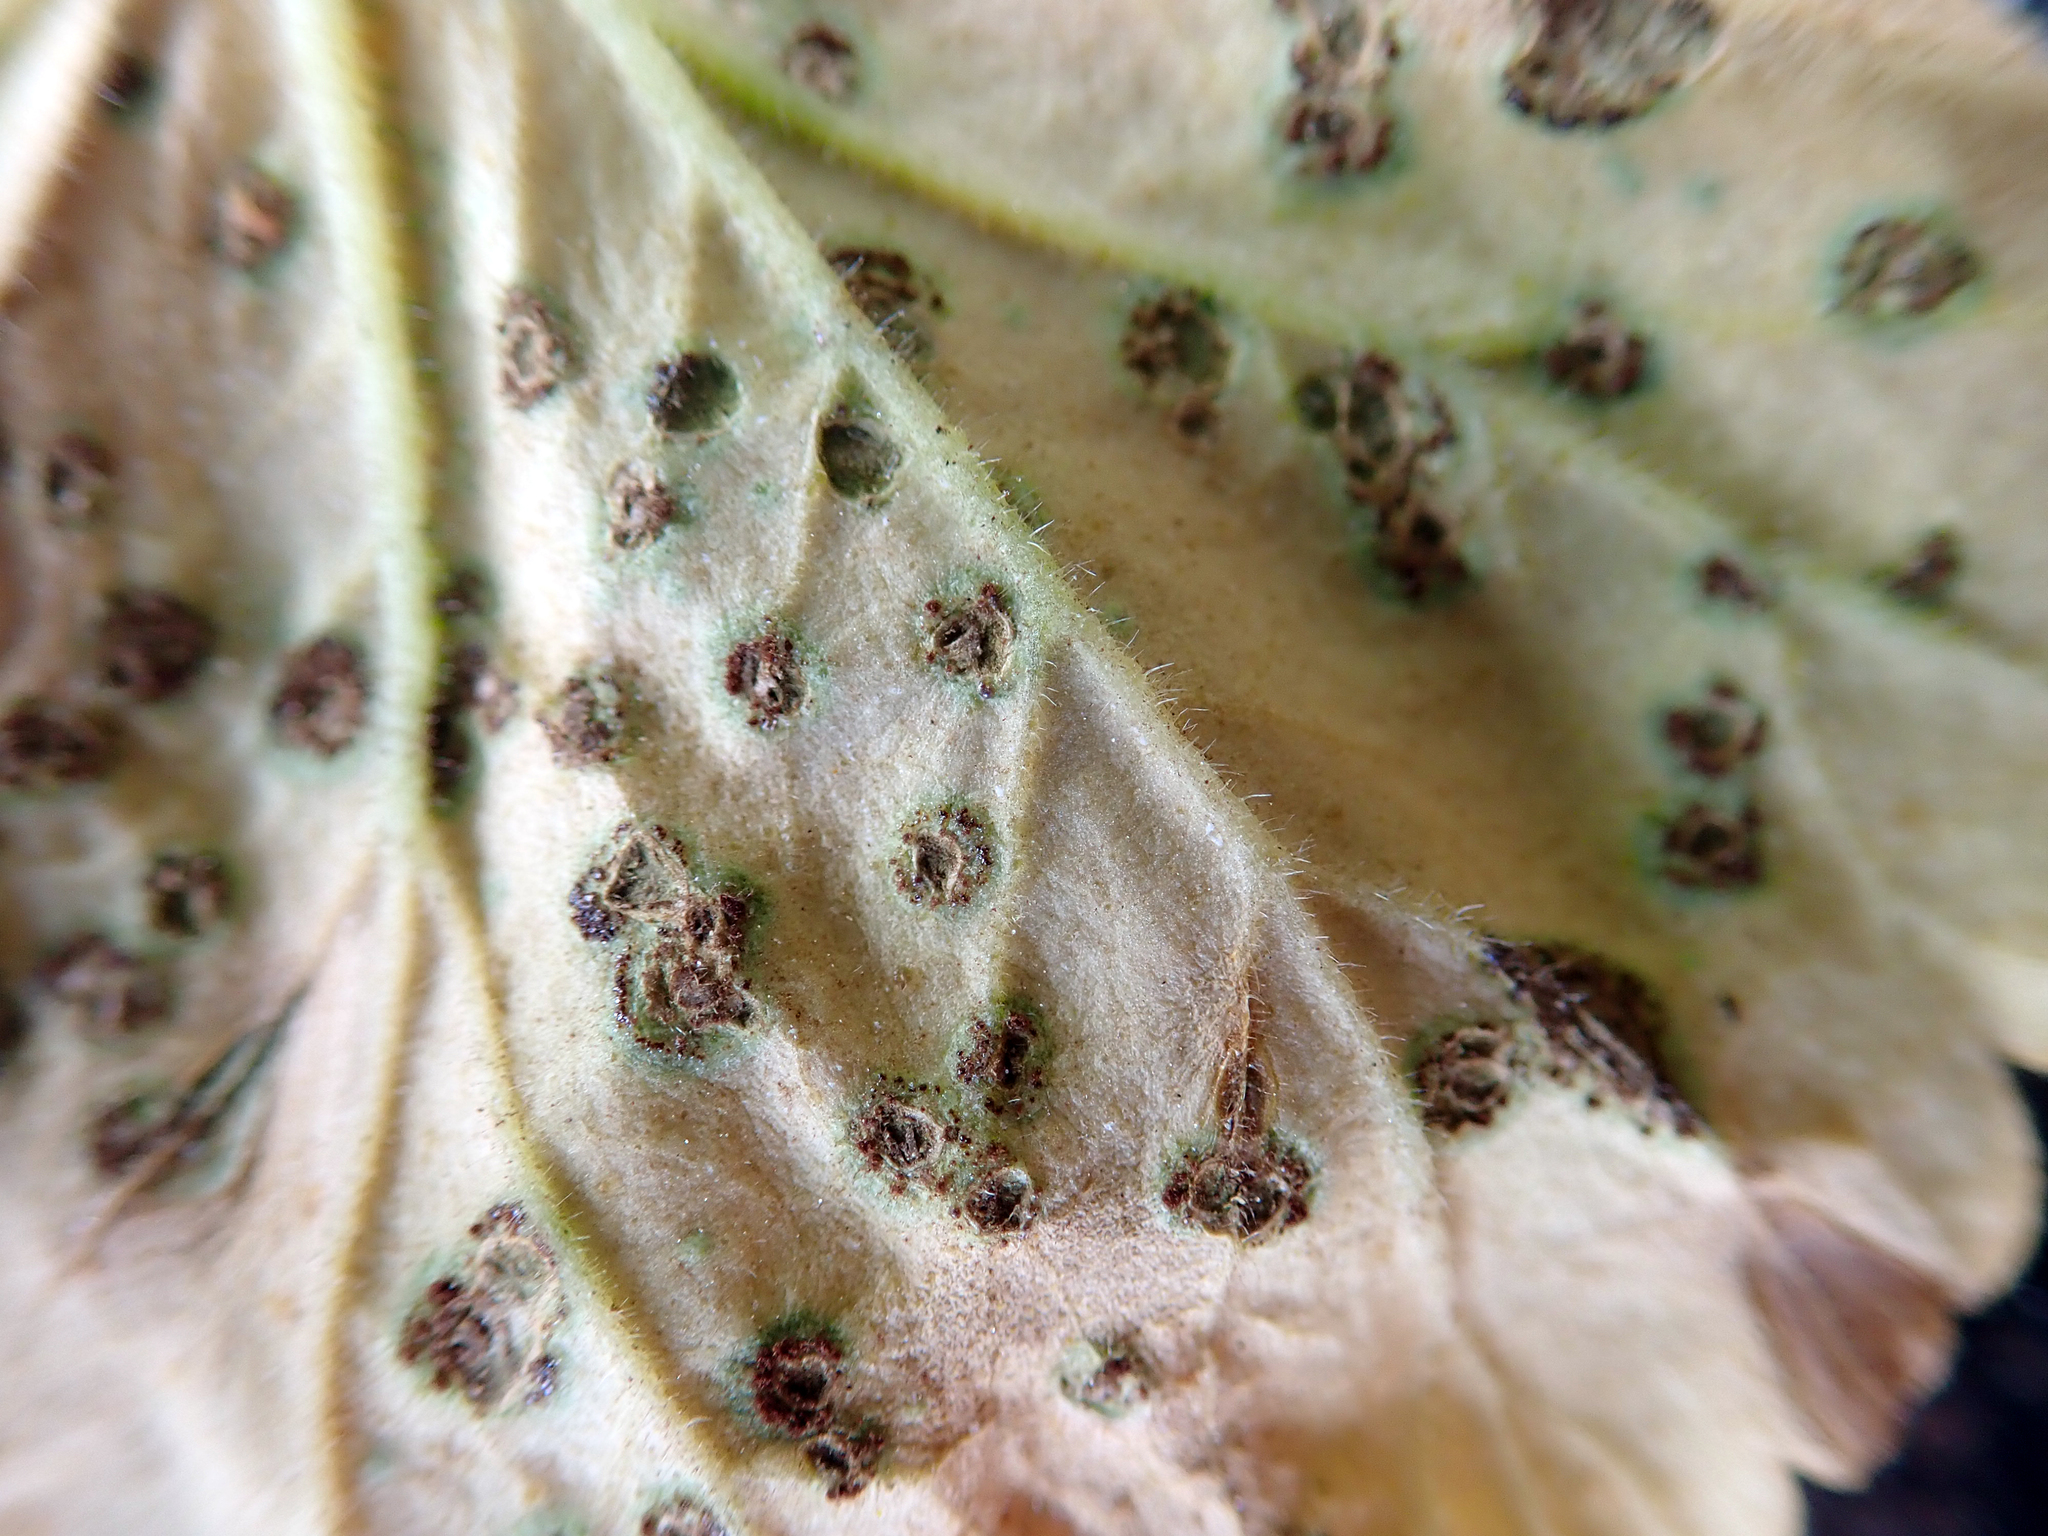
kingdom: Fungi
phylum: Basidiomycota
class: Pucciniomycetes
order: Pucciniales
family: Pucciniaceae
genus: Puccinia
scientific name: Puccinia pelargonii-zonalis
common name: Rust of pelargonium
